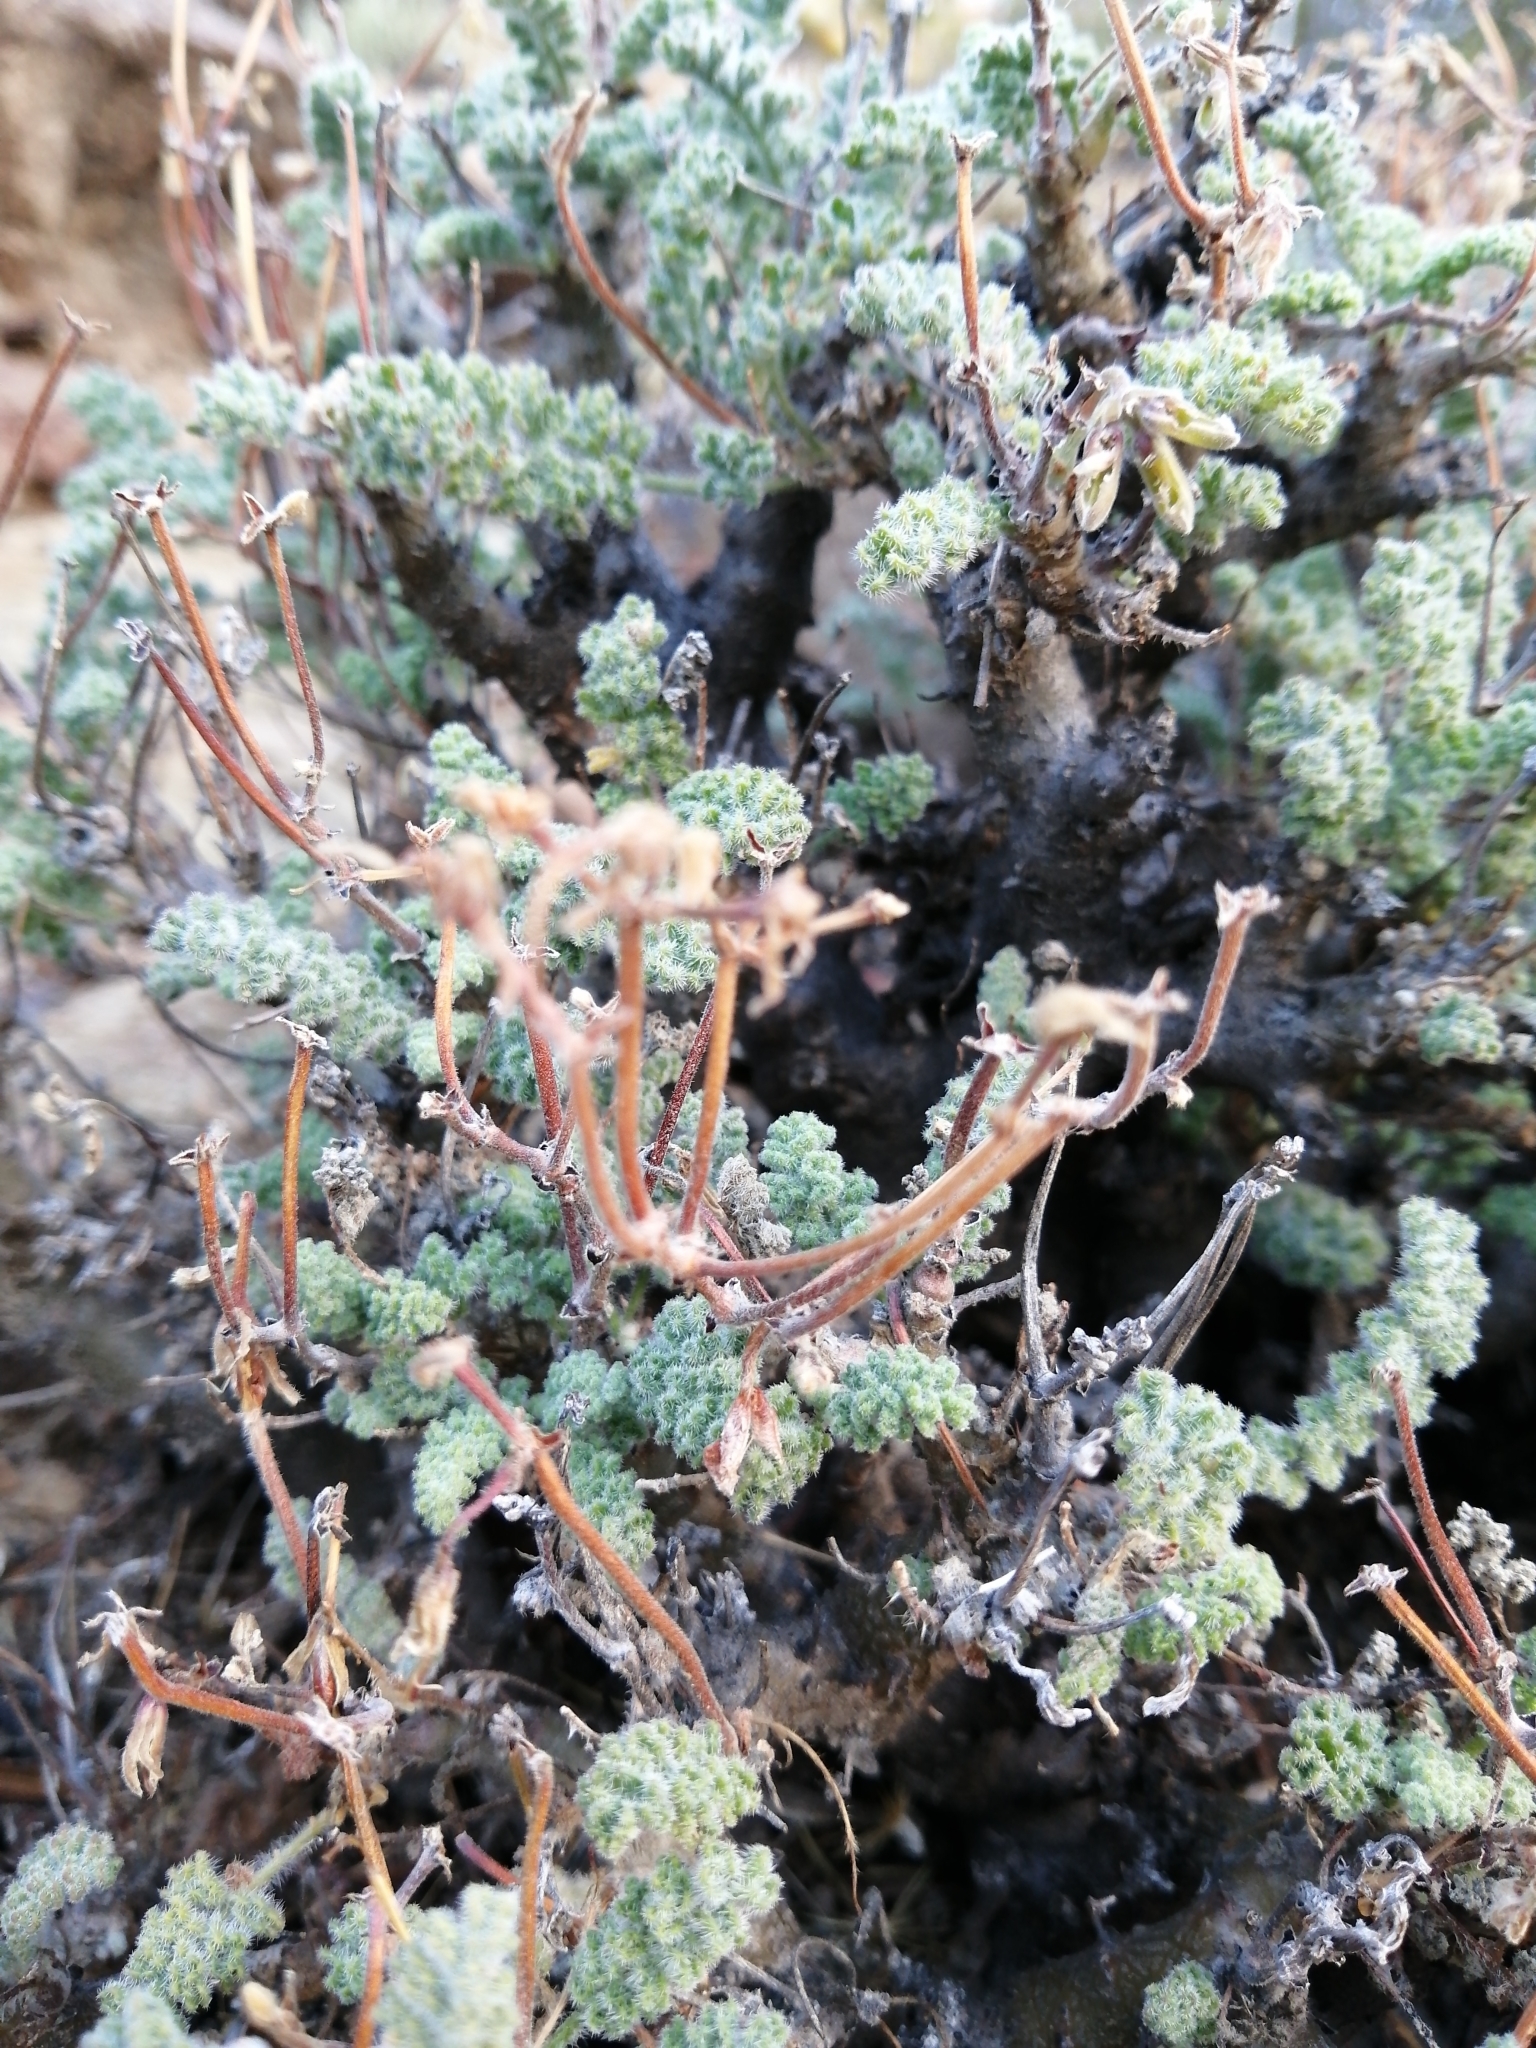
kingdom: Plantae
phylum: Tracheophyta
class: Magnoliopsida
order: Geraniales
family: Geraniaceae
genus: Pelargonium
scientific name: Pelargonium alternans
